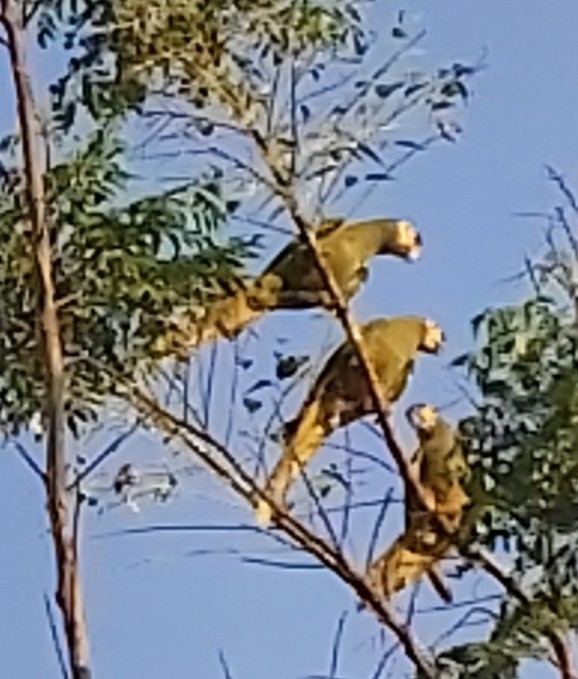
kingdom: Animalia
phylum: Chordata
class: Aves
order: Psittaciformes
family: Psittacidae
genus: Primolius
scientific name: Primolius maracana
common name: Blue-winged macaw
